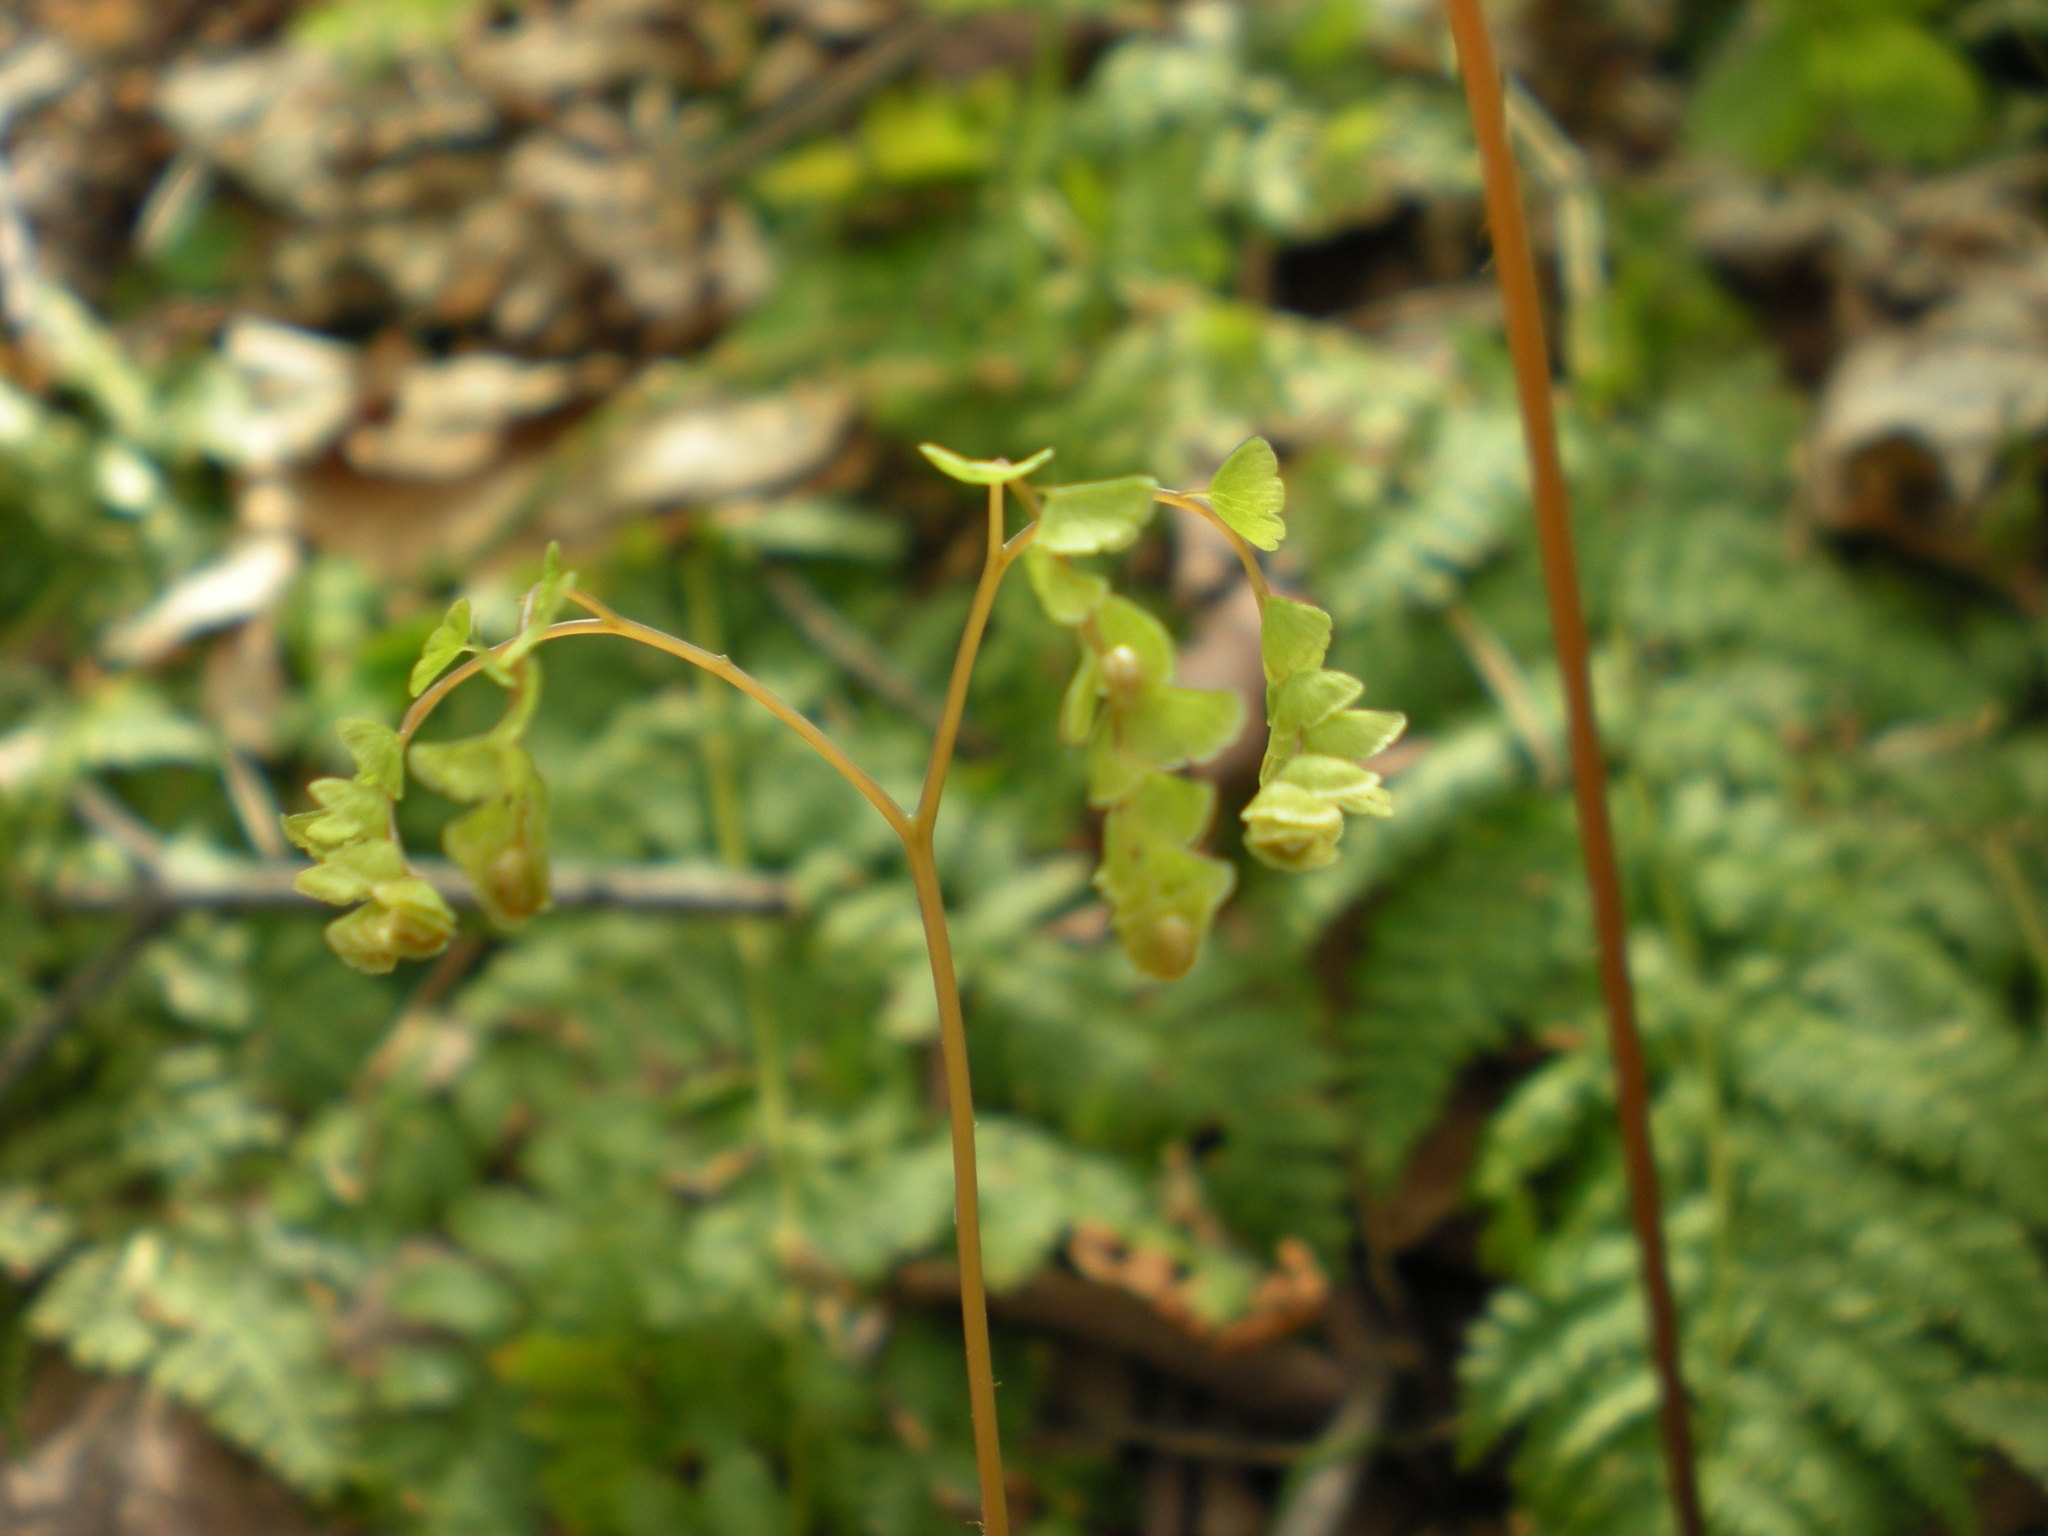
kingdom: Plantae
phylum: Tracheophyta
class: Polypodiopsida
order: Polypodiales
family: Pteridaceae
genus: Adiantum
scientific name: Adiantum pedatum
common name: Five-finger fern
